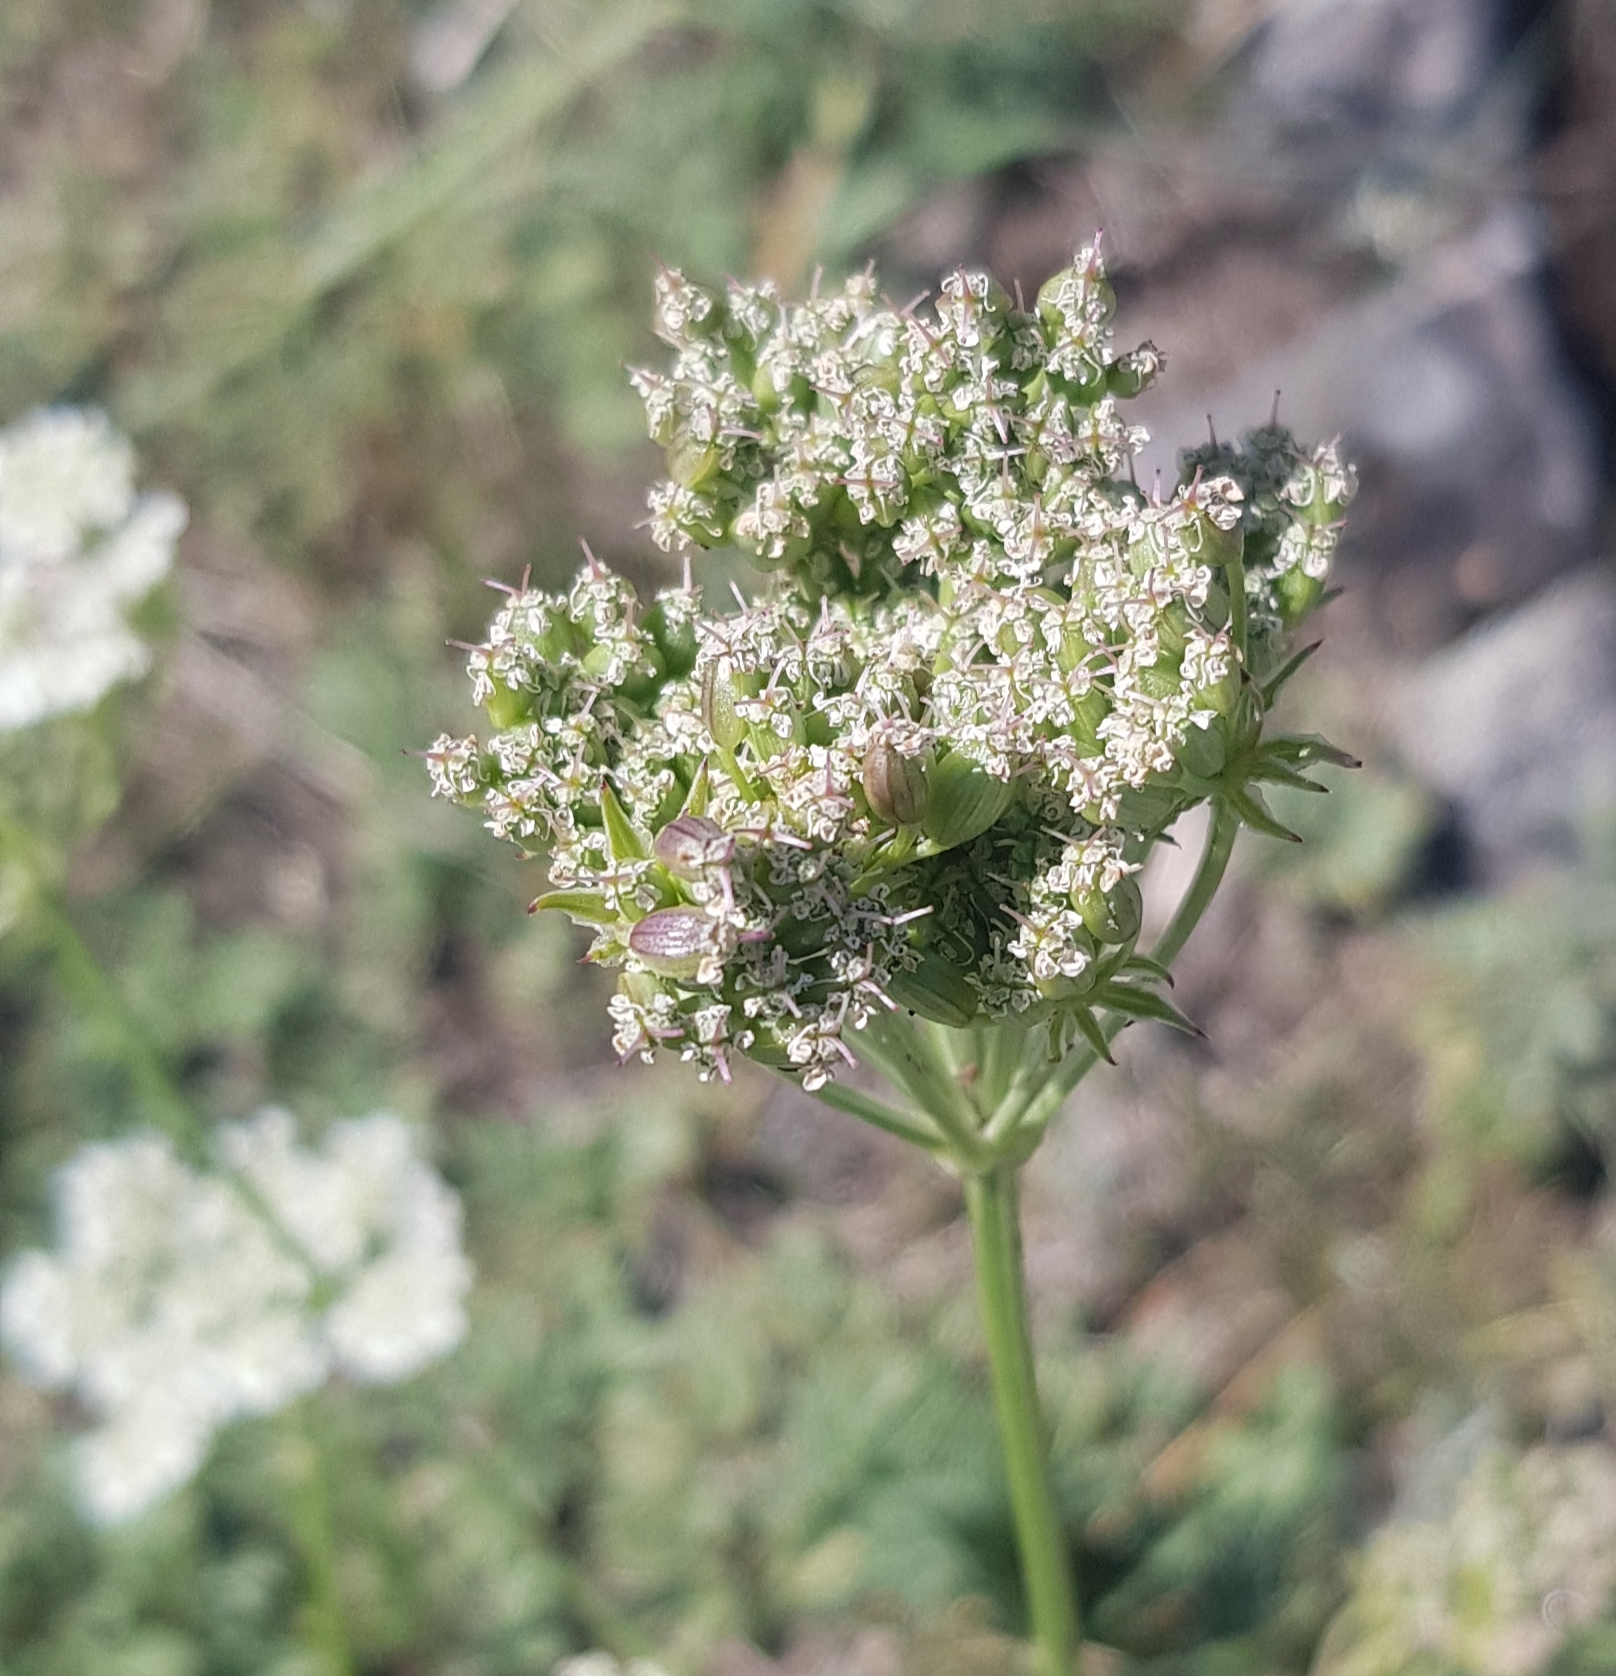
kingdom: Plantae
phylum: Tracheophyta
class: Magnoliopsida
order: Apiales
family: Apiaceae
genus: Kitagawia
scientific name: Kitagawia baicalensis
